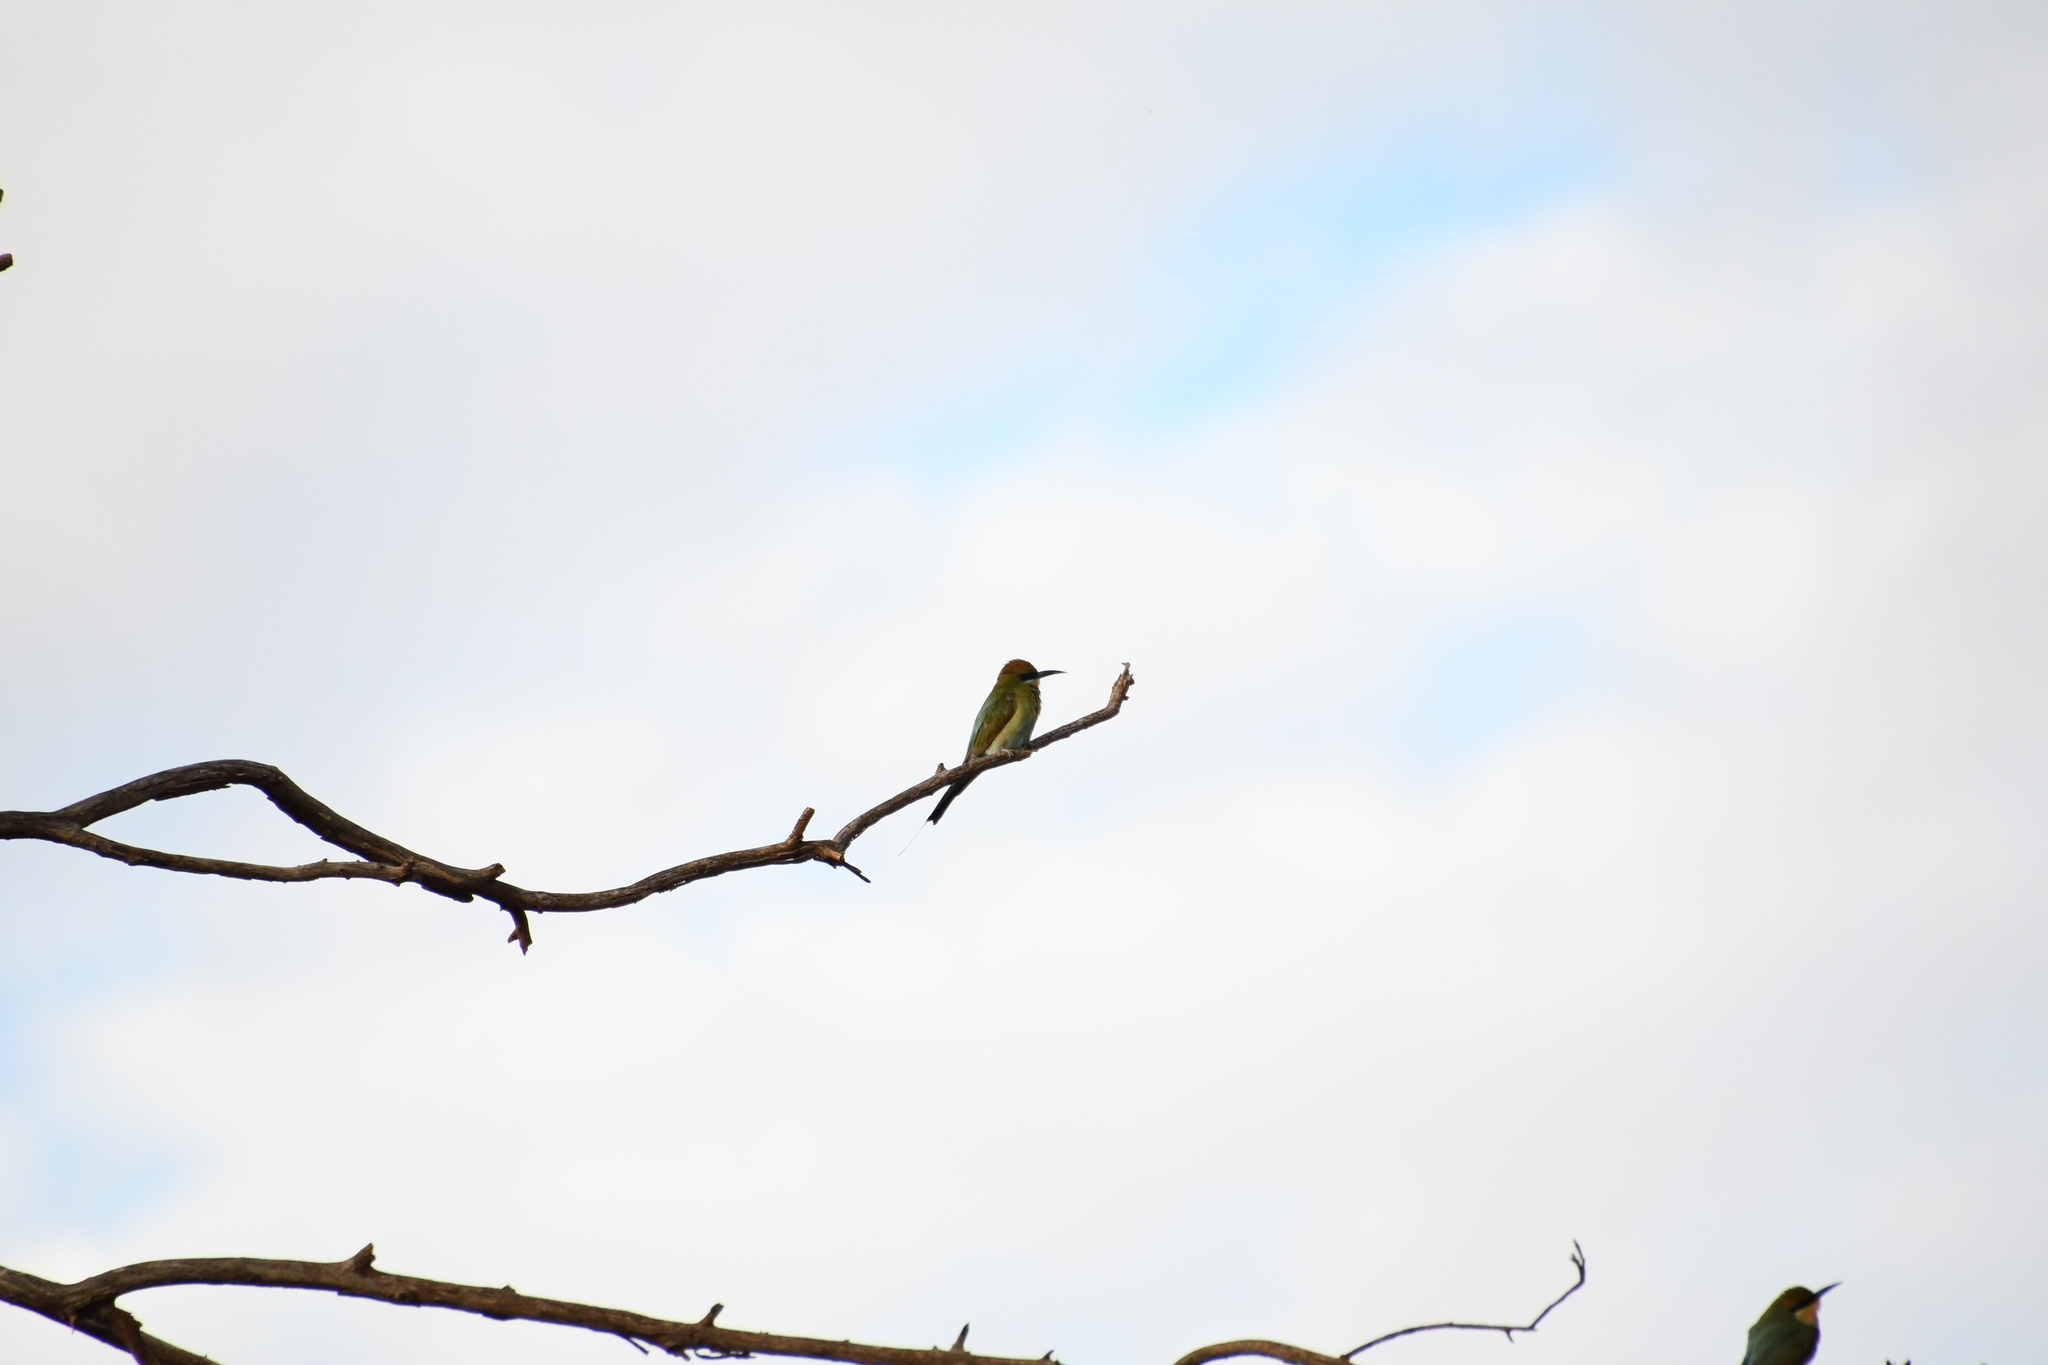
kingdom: Animalia
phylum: Chordata
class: Aves
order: Coraciiformes
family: Meropidae
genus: Merops
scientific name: Merops ornatus
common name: Rainbow bee-eater
